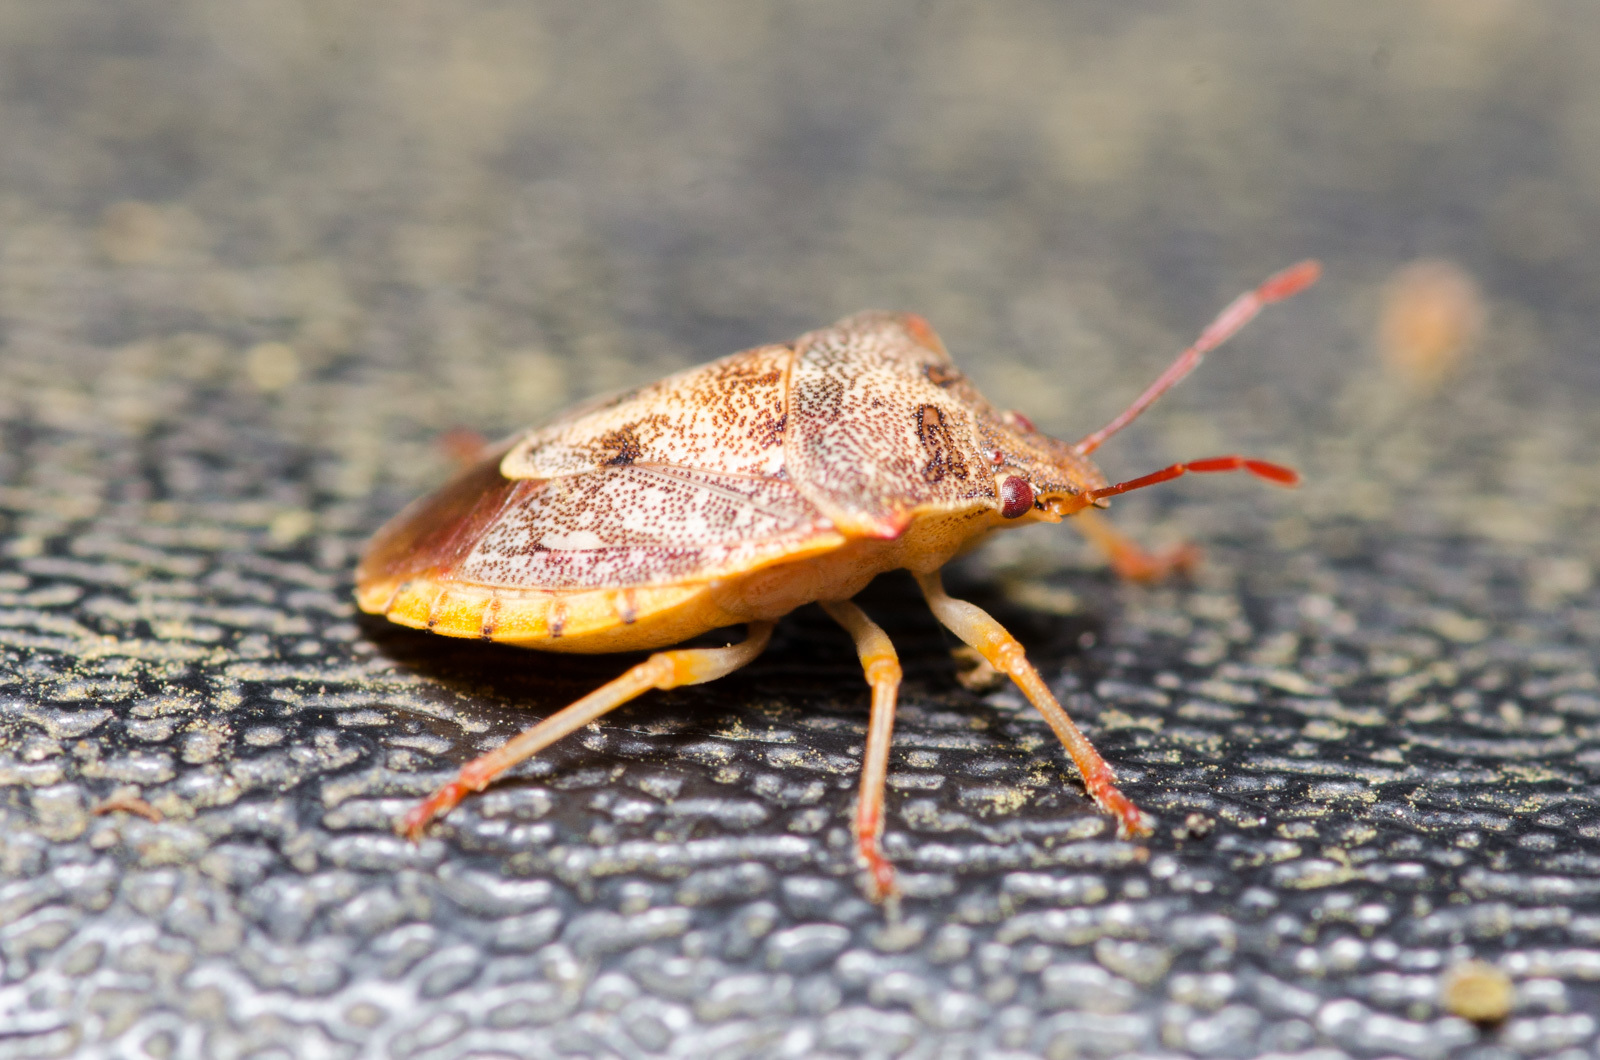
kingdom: Animalia
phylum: Arthropoda
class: Insecta
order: Hemiptera
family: Pentatomidae
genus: Dendrocoris
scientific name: Dendrocoris humeralis
